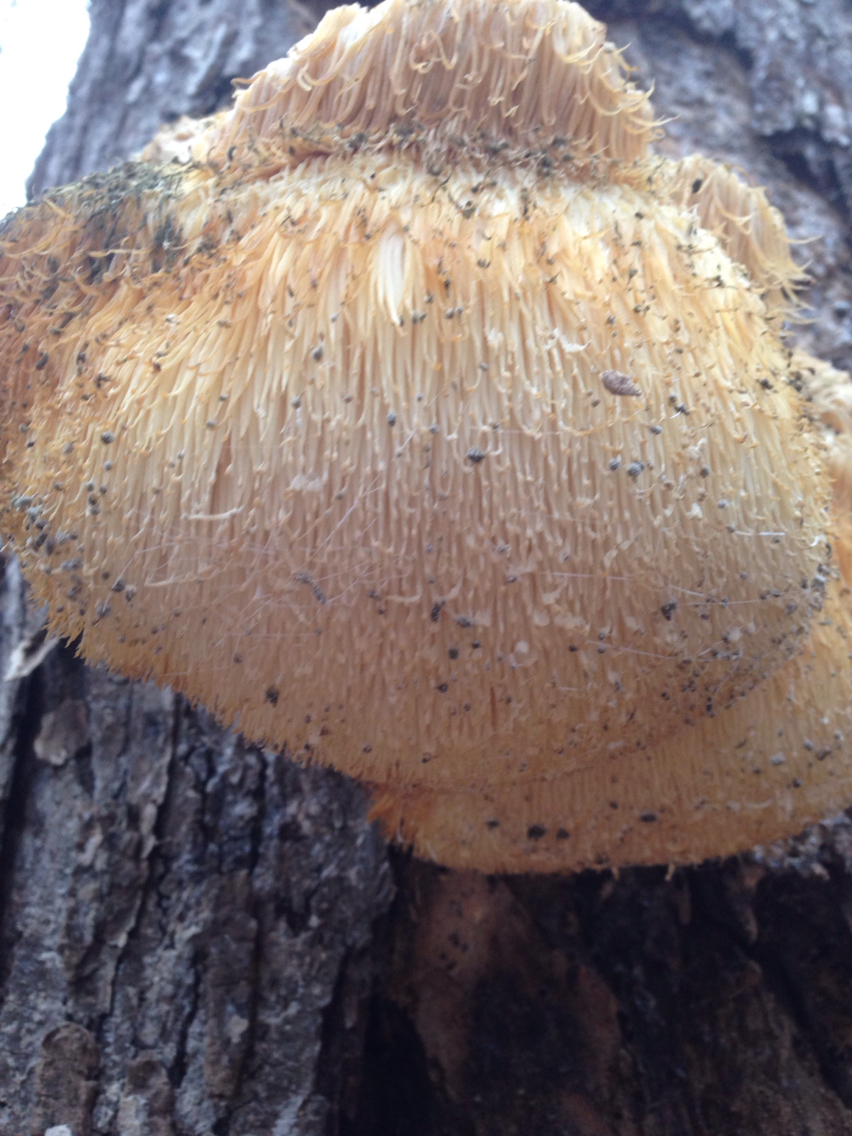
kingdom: Fungi
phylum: Basidiomycota
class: Agaricomycetes
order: Russulales
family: Hericiaceae
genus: Hericium
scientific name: Hericium erinaceus
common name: Bearded tooth
